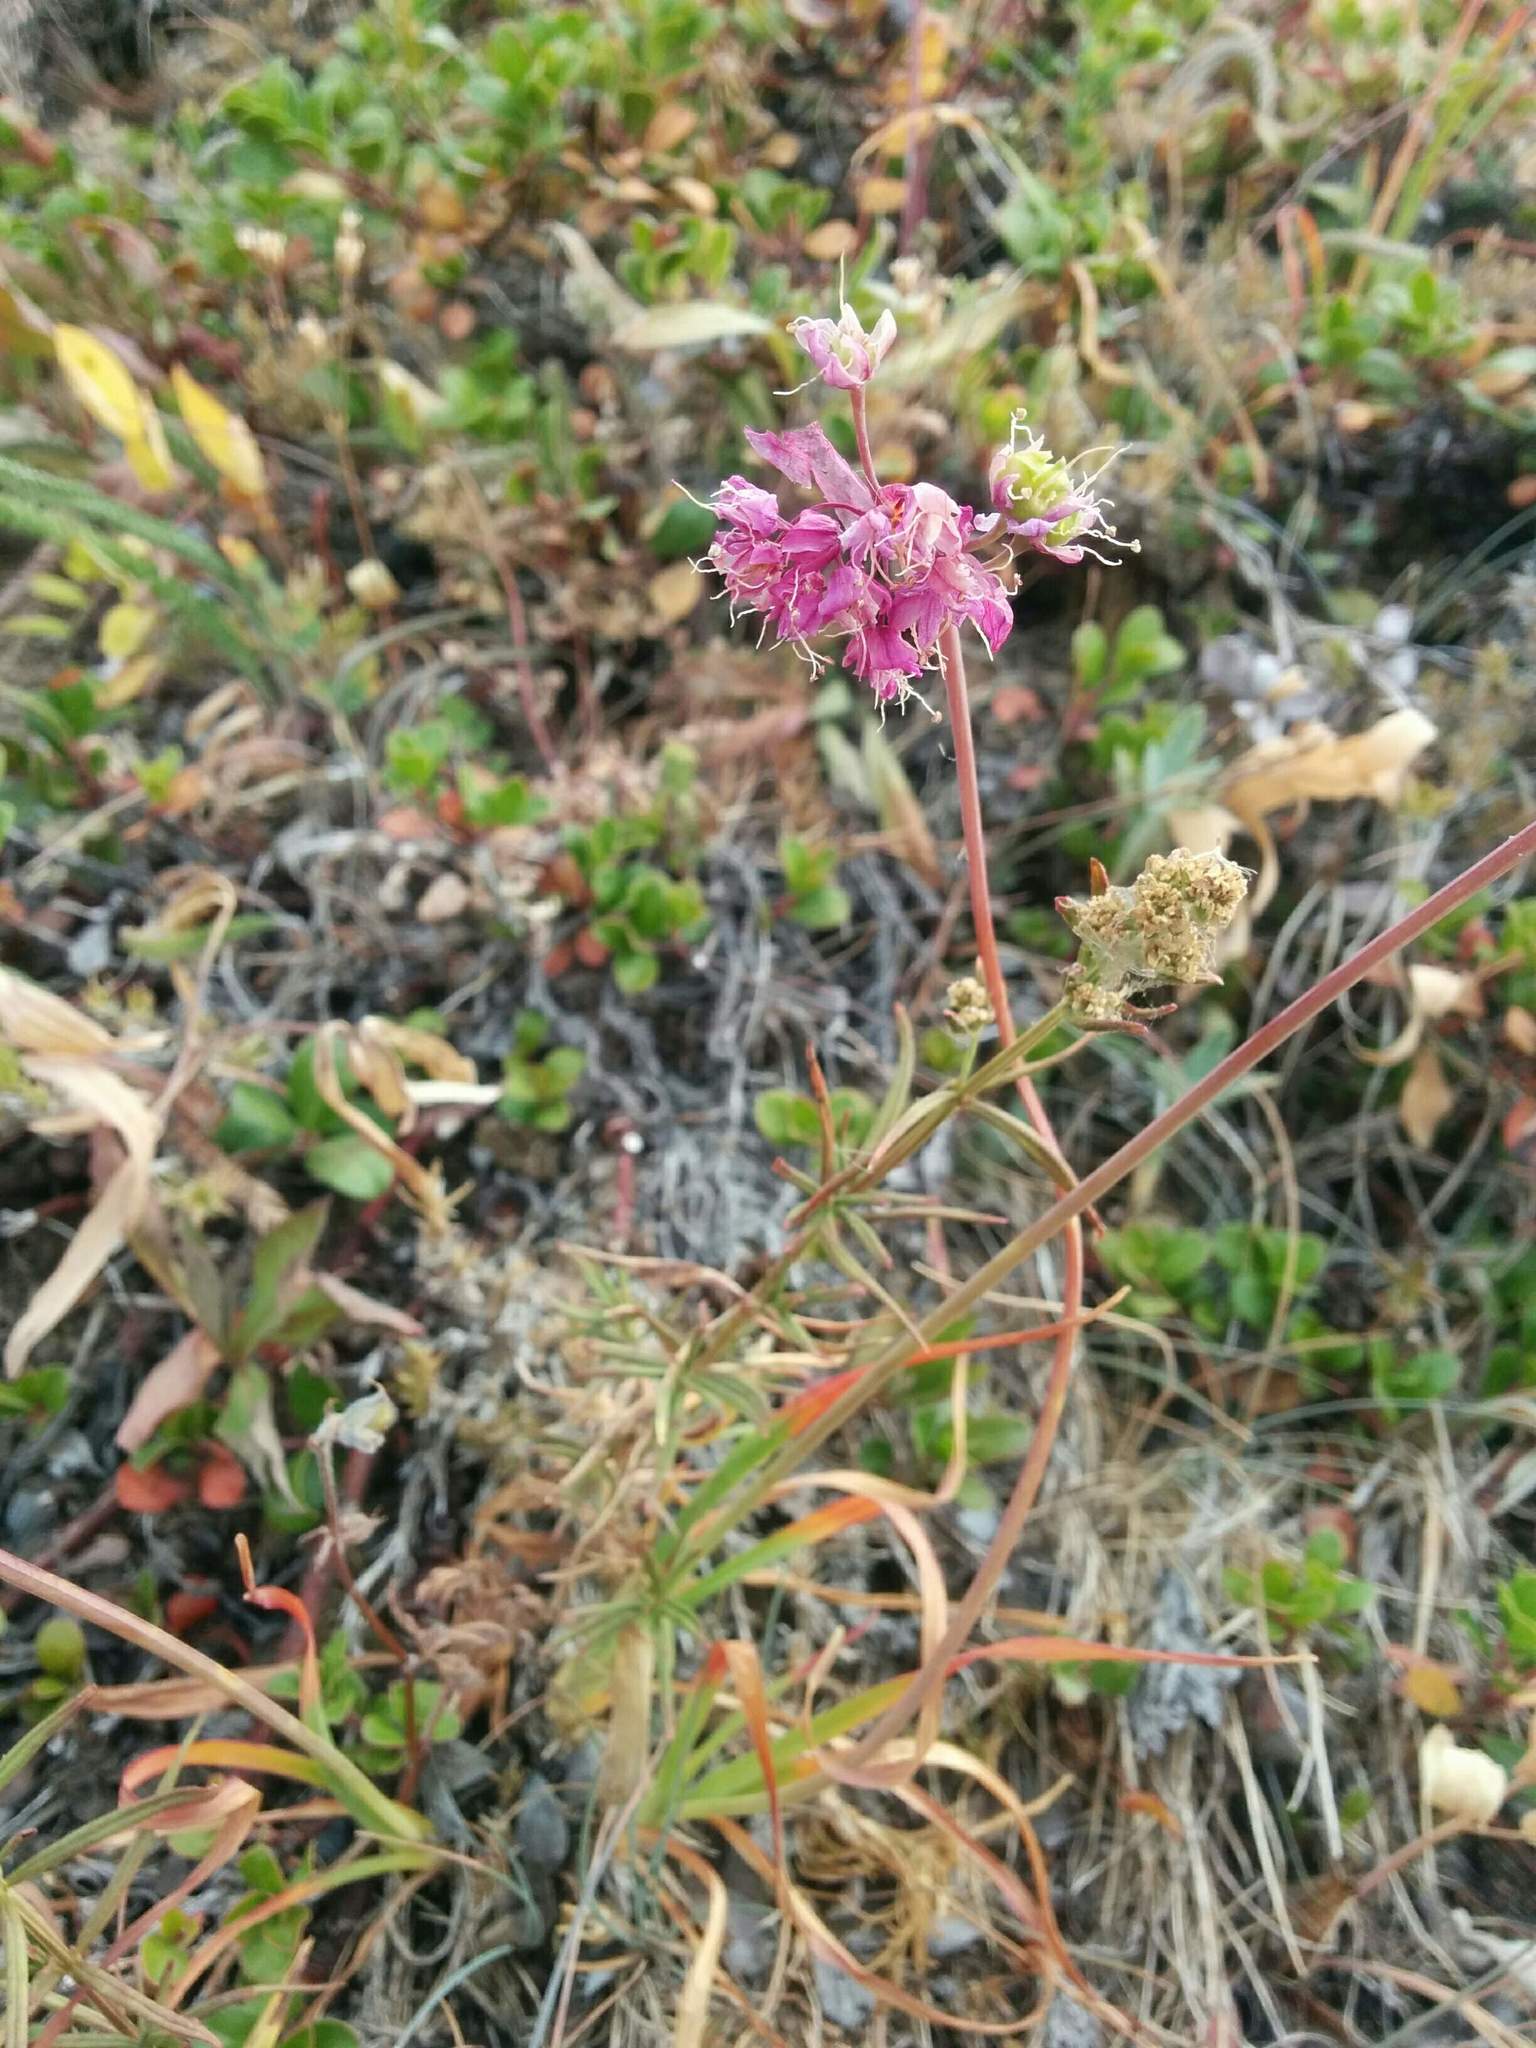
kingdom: Plantae
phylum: Tracheophyta
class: Liliopsida
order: Asparagales
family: Amaryllidaceae
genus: Allium
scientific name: Allium cernuum
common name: Nodding onion
